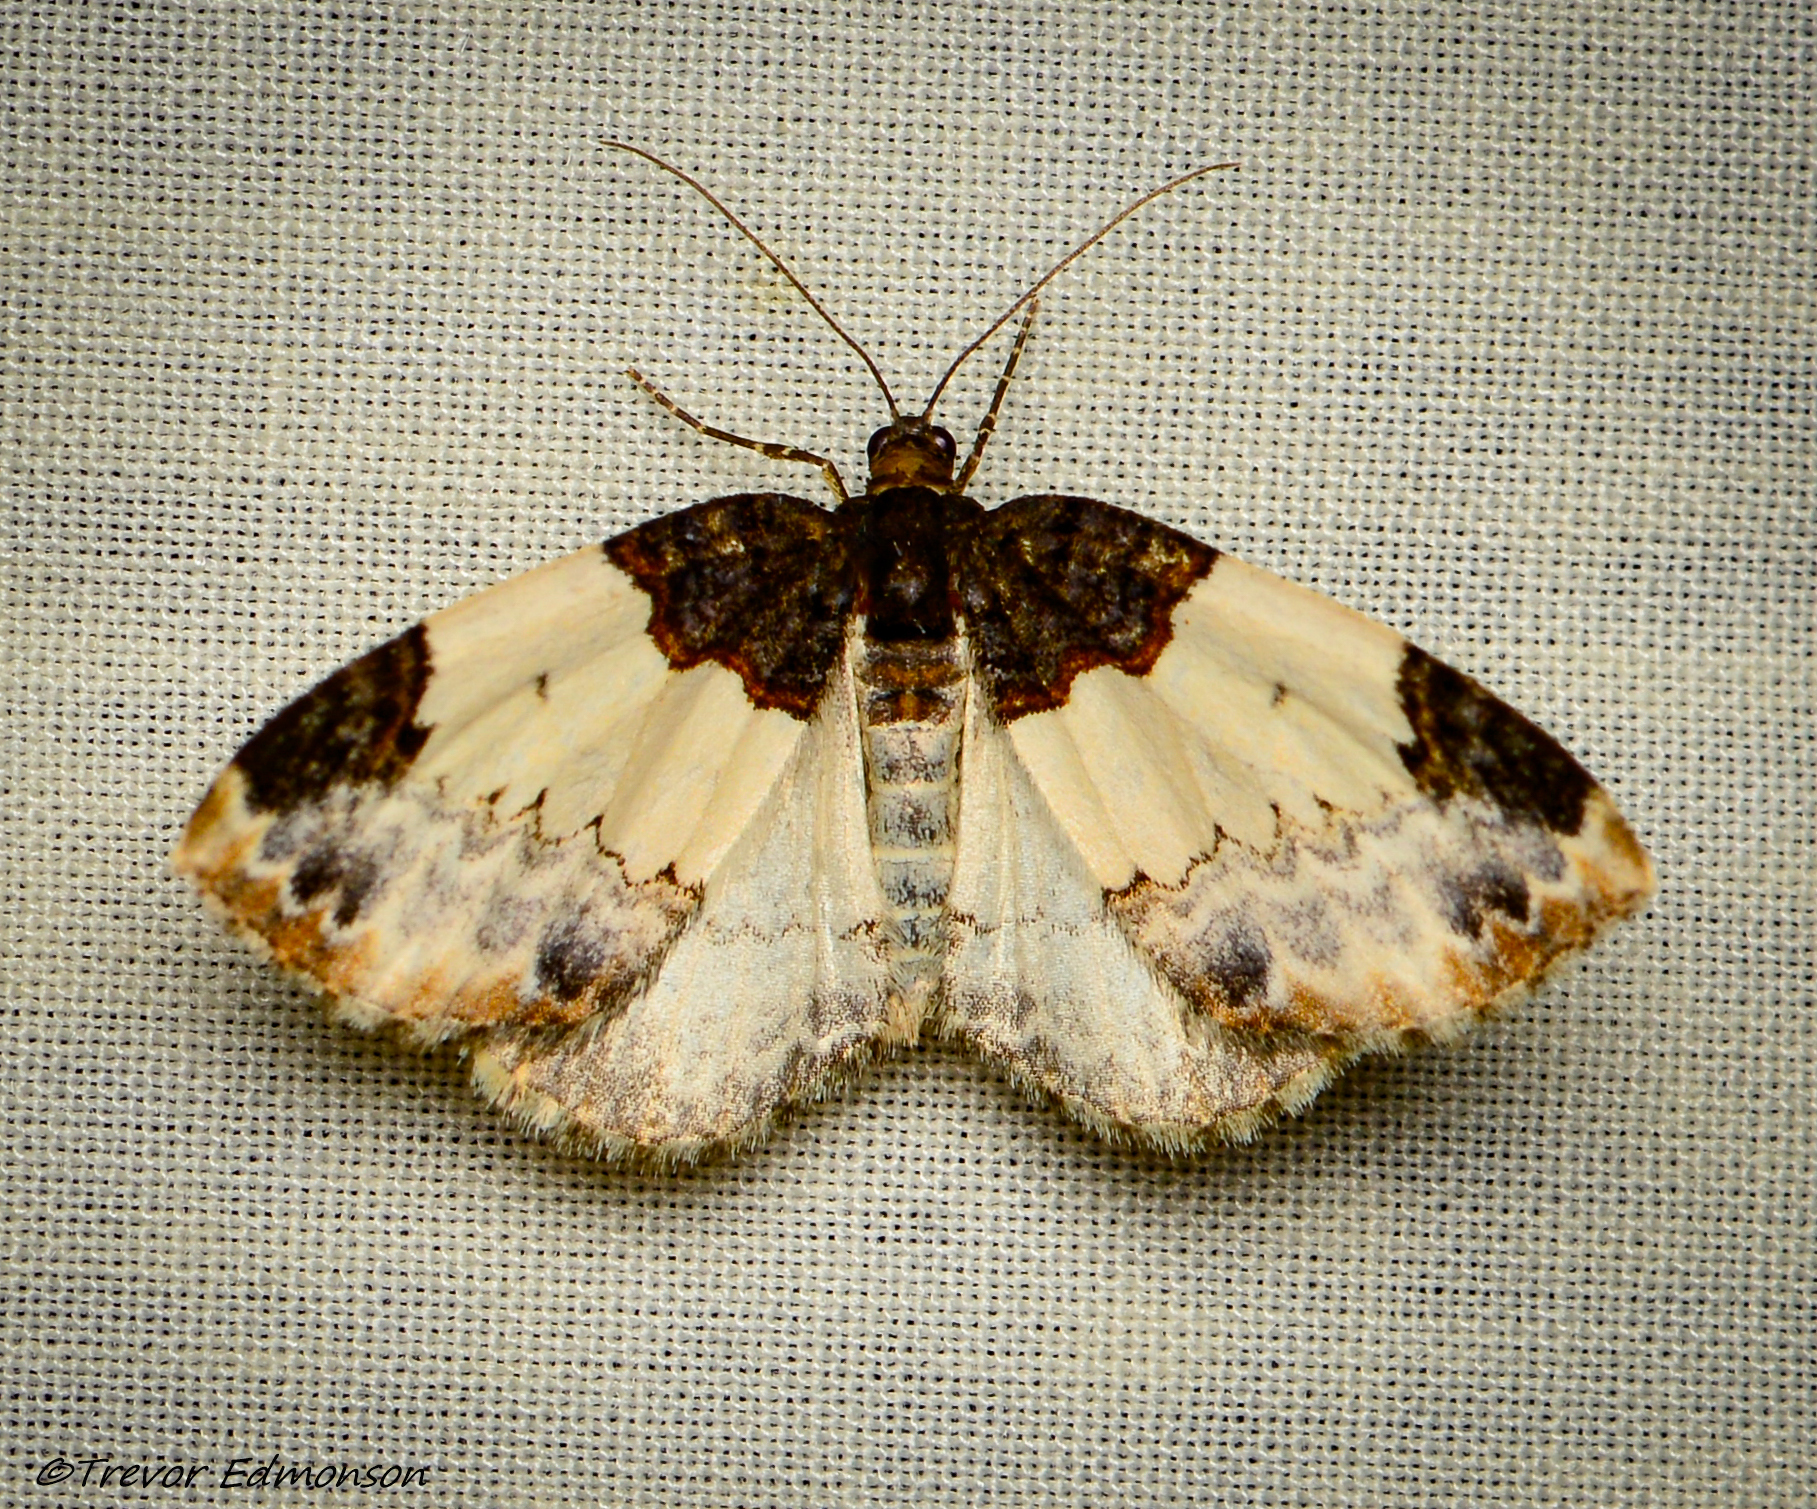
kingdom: Animalia
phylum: Arthropoda
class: Insecta
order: Lepidoptera
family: Geometridae
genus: Mesoleuca
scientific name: Mesoleuca ruficillata
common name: White-ribboned carpet moth
